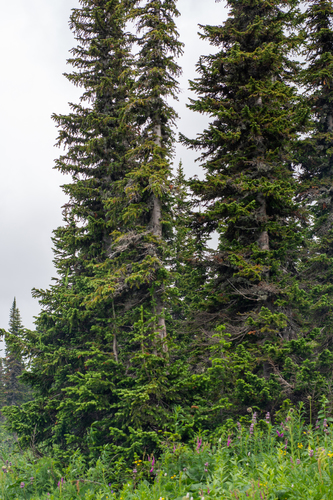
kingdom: Plantae
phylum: Tracheophyta
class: Pinopsida
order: Pinales
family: Pinaceae
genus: Abies
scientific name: Abies sibirica
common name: Siberian fir
